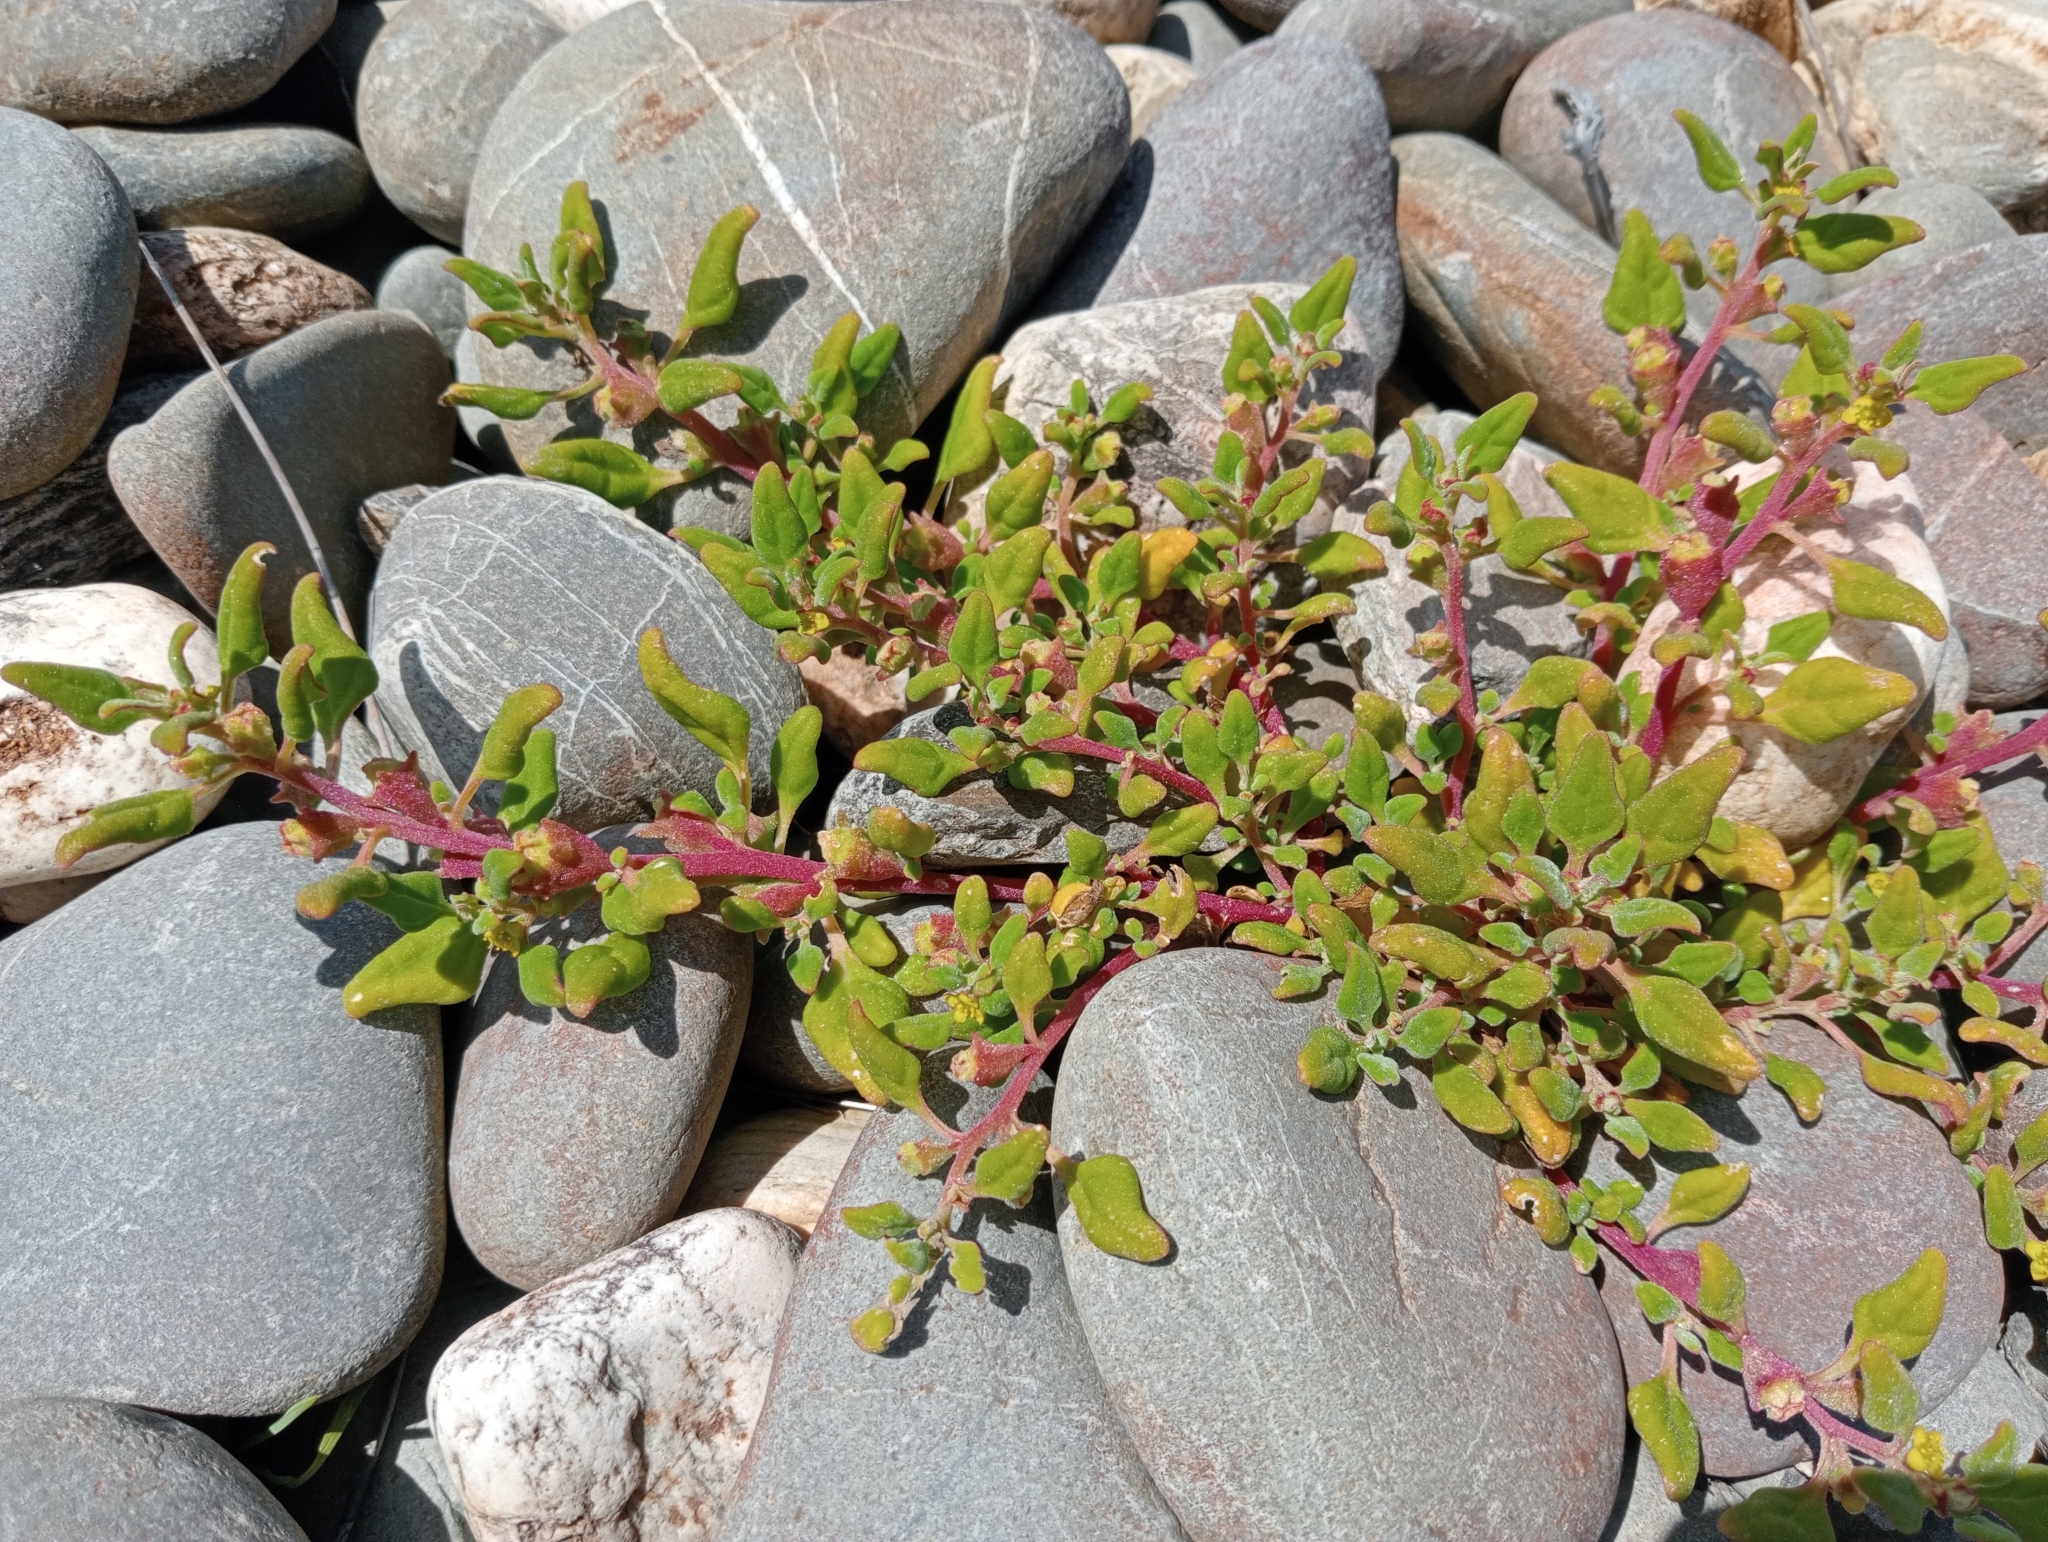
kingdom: Plantae
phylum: Tracheophyta
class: Magnoliopsida
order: Caryophyllales
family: Aizoaceae
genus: Tetragonia
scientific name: Tetragonia tetragonoides
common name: New zealand-spinach
